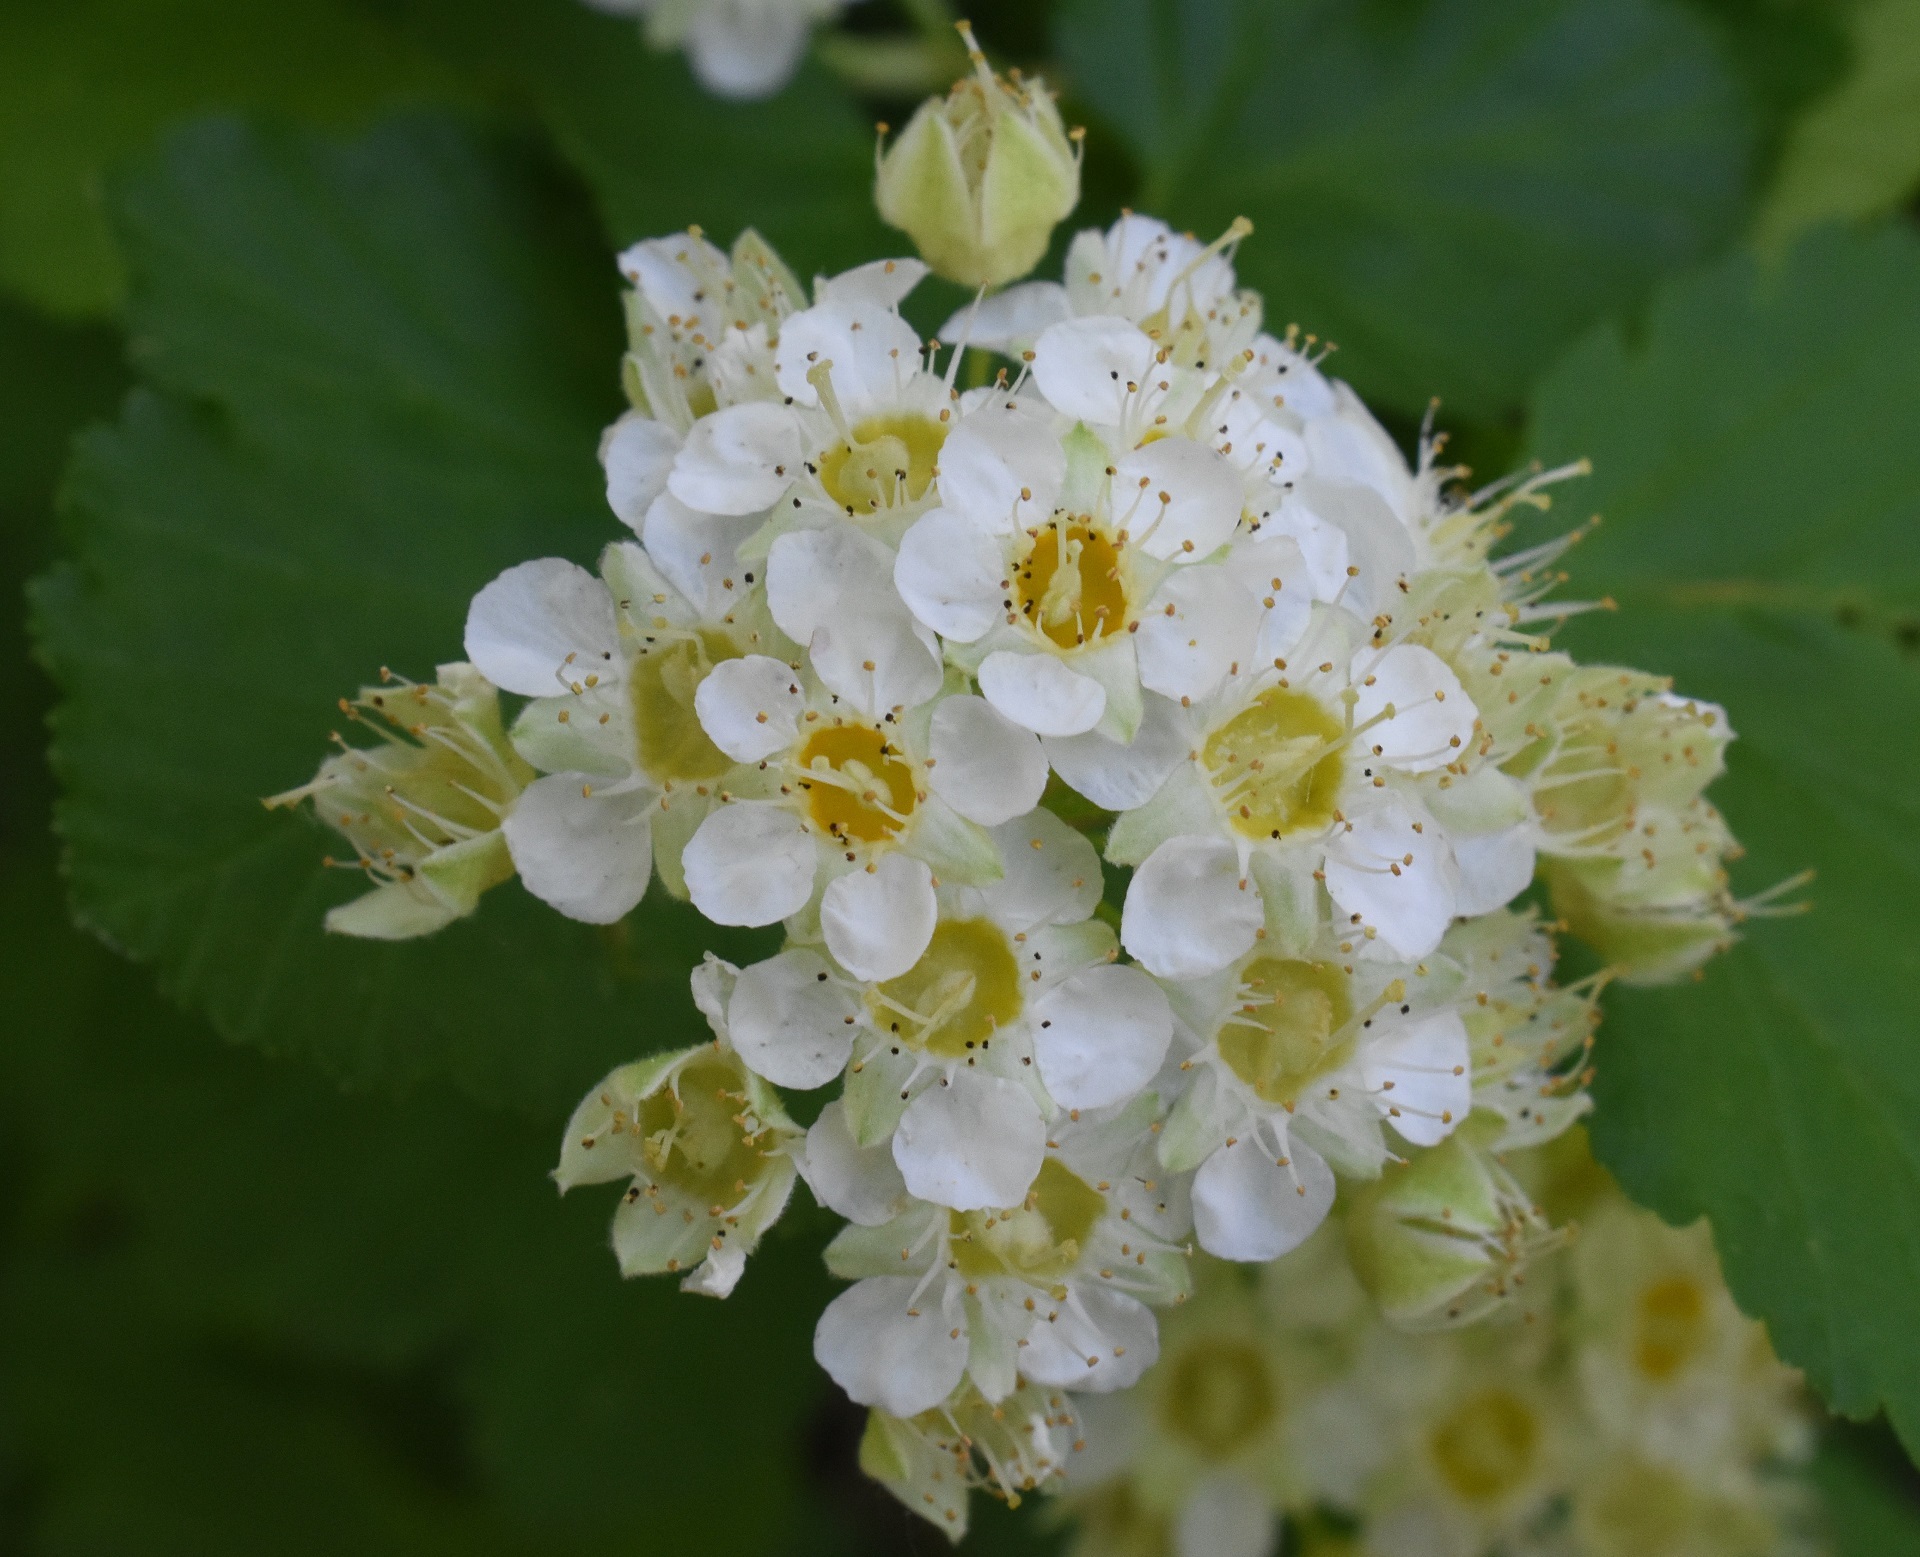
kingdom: Plantae
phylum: Tracheophyta
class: Magnoliopsida
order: Rosales
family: Rosaceae
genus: Physocarpus
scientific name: Physocarpus malvaceus
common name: Mallow ninebark
